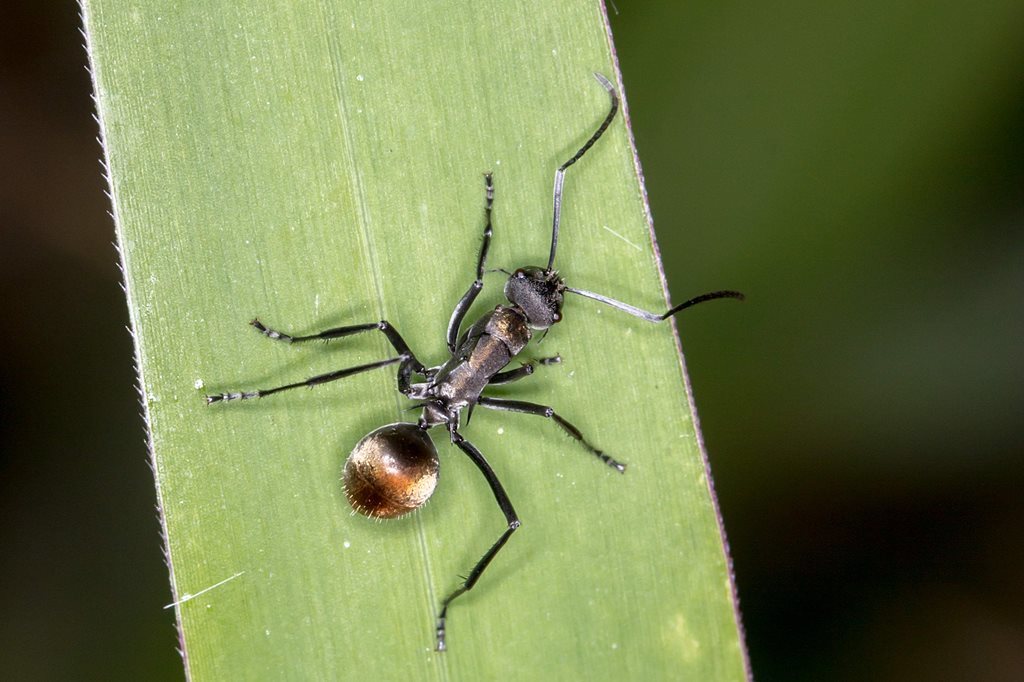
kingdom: Animalia
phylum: Arthropoda
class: Insecta
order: Hymenoptera
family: Formicidae
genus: Polyrhachis
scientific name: Polyrhachis angusta
